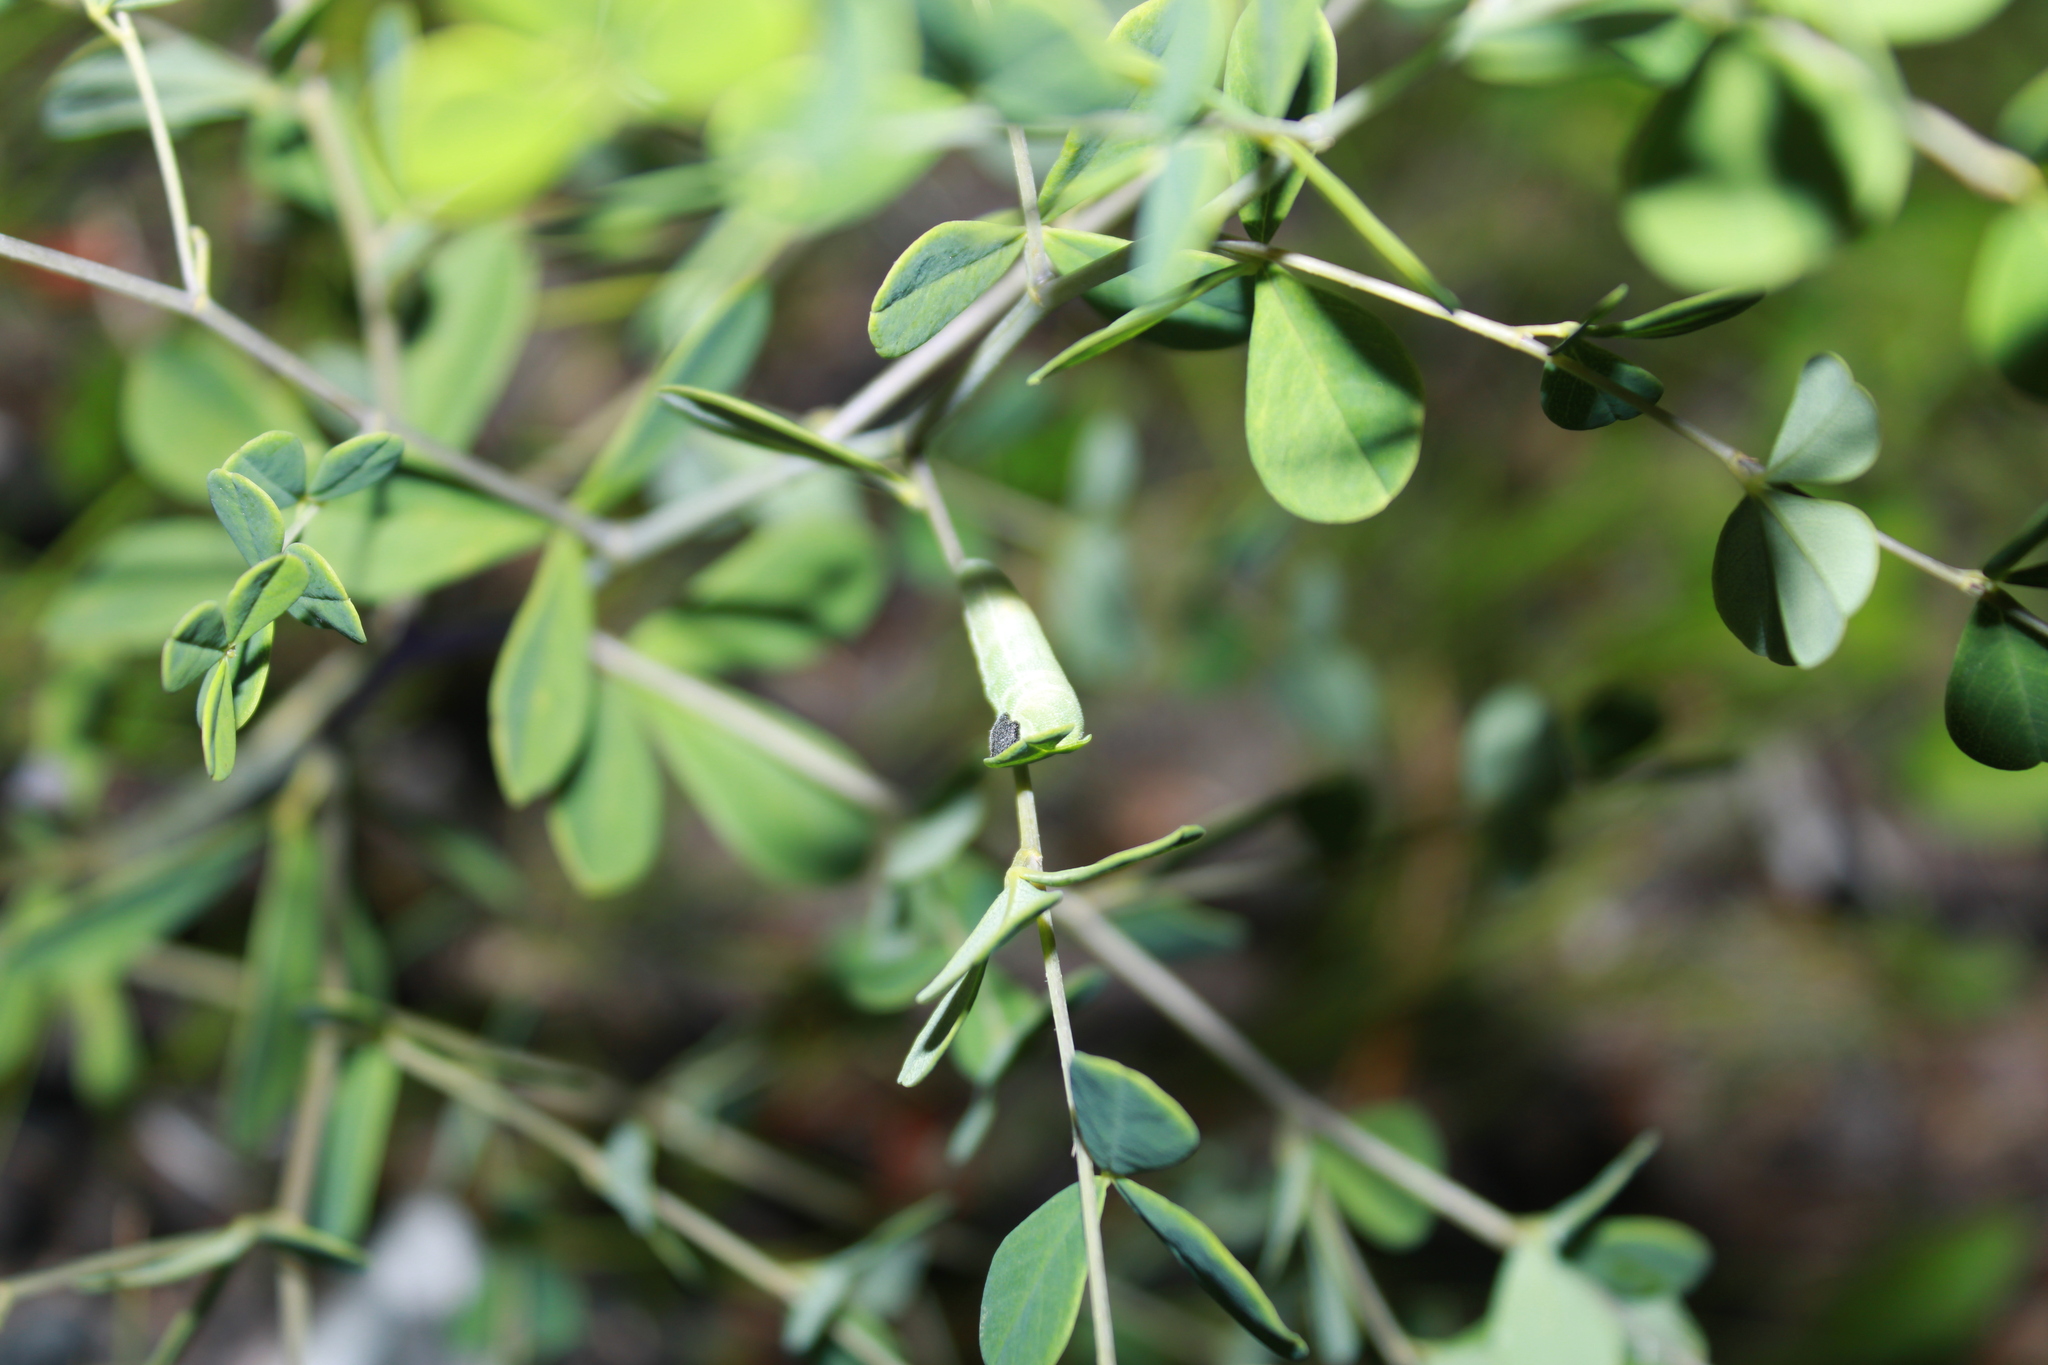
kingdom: Animalia
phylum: Arthropoda
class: Insecta
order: Lepidoptera
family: Hesperiidae
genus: Erynnis
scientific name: Erynnis baptisiae
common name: Wild indigo duskywing
